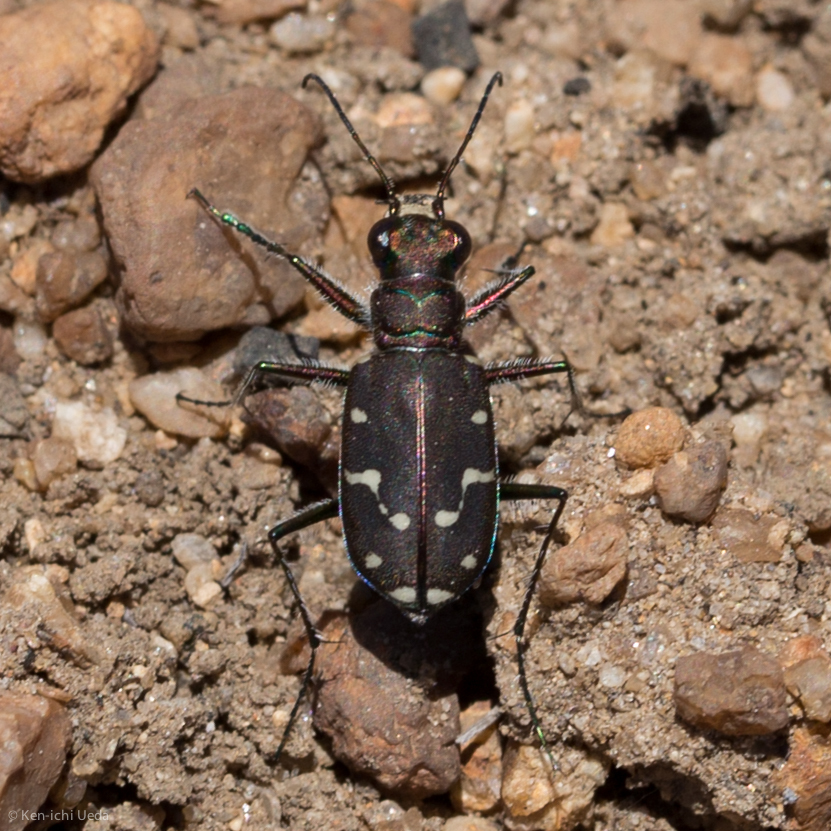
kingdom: Animalia
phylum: Arthropoda
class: Insecta
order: Coleoptera
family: Carabidae
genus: Cicindela
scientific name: Cicindela oregona
